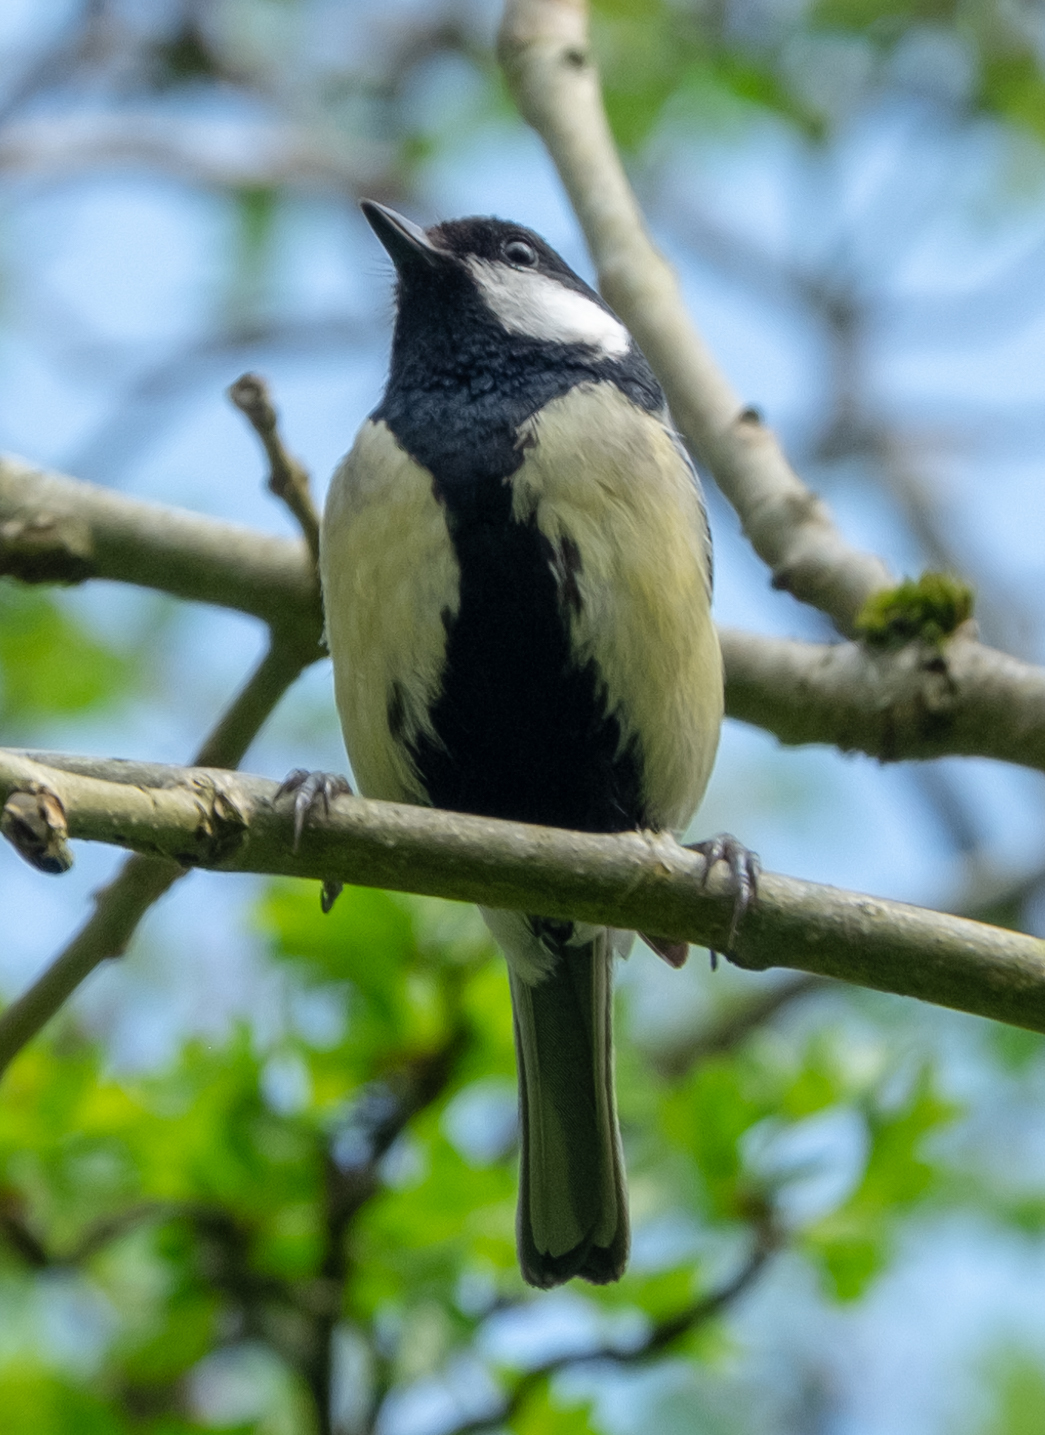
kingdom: Animalia
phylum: Chordata
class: Aves
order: Passeriformes
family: Paridae
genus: Parus
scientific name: Parus major
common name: Great tit
